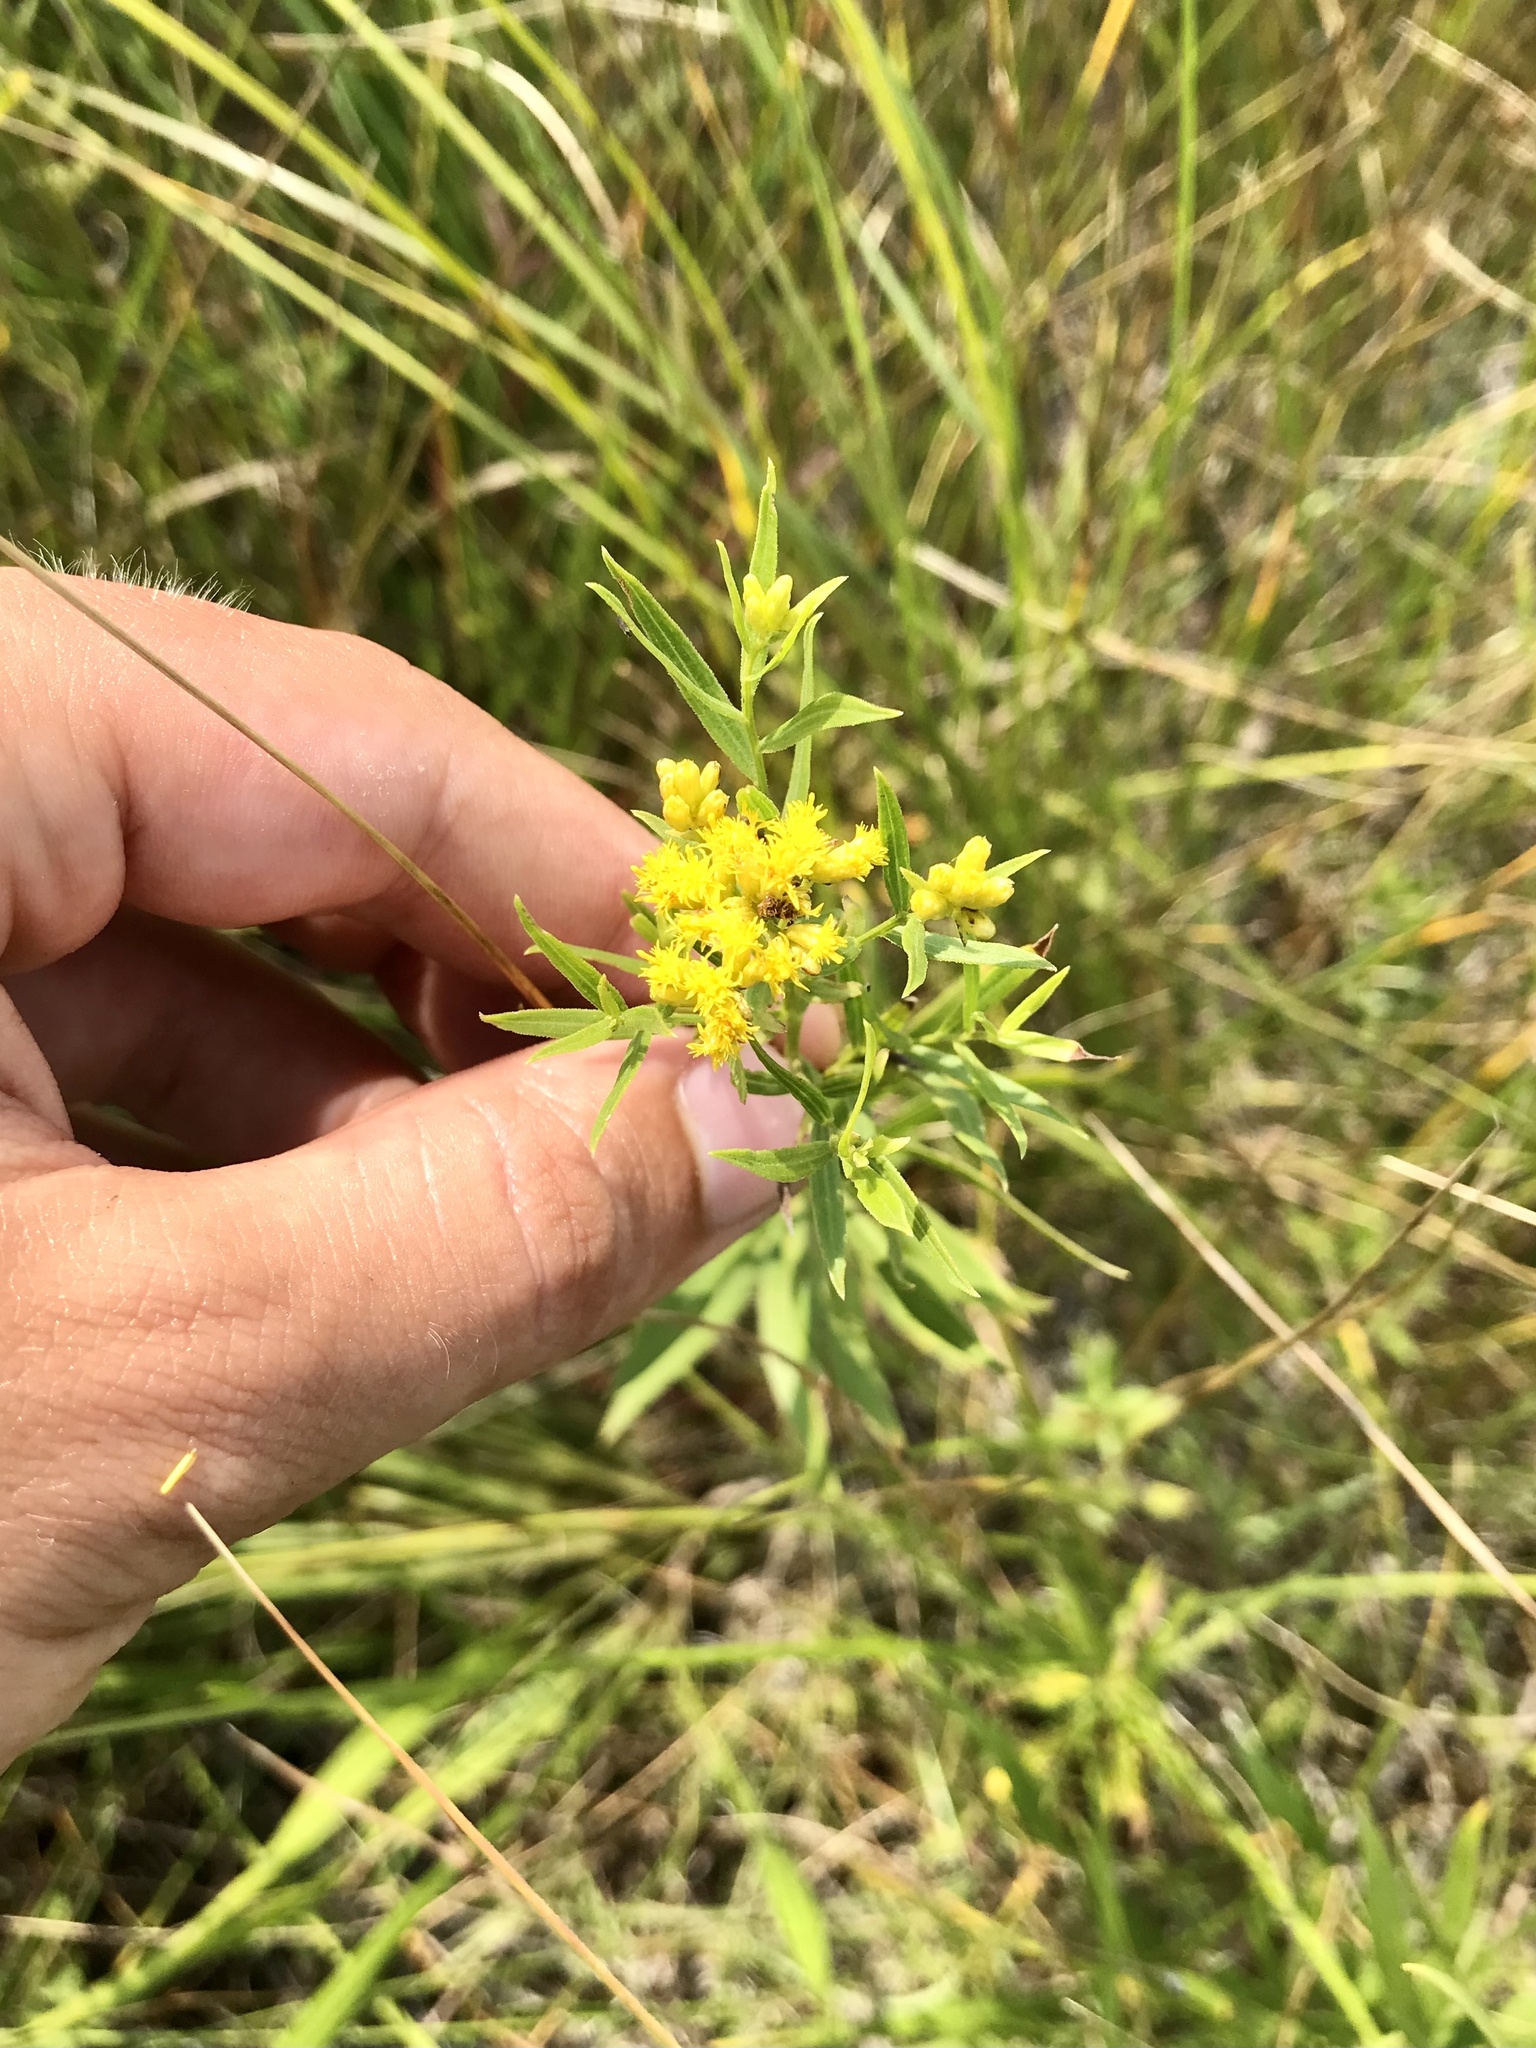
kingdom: Plantae
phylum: Tracheophyta
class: Magnoliopsida
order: Asterales
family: Asteraceae
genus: Euthamia
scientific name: Euthamia graminifolia
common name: Common goldentop
